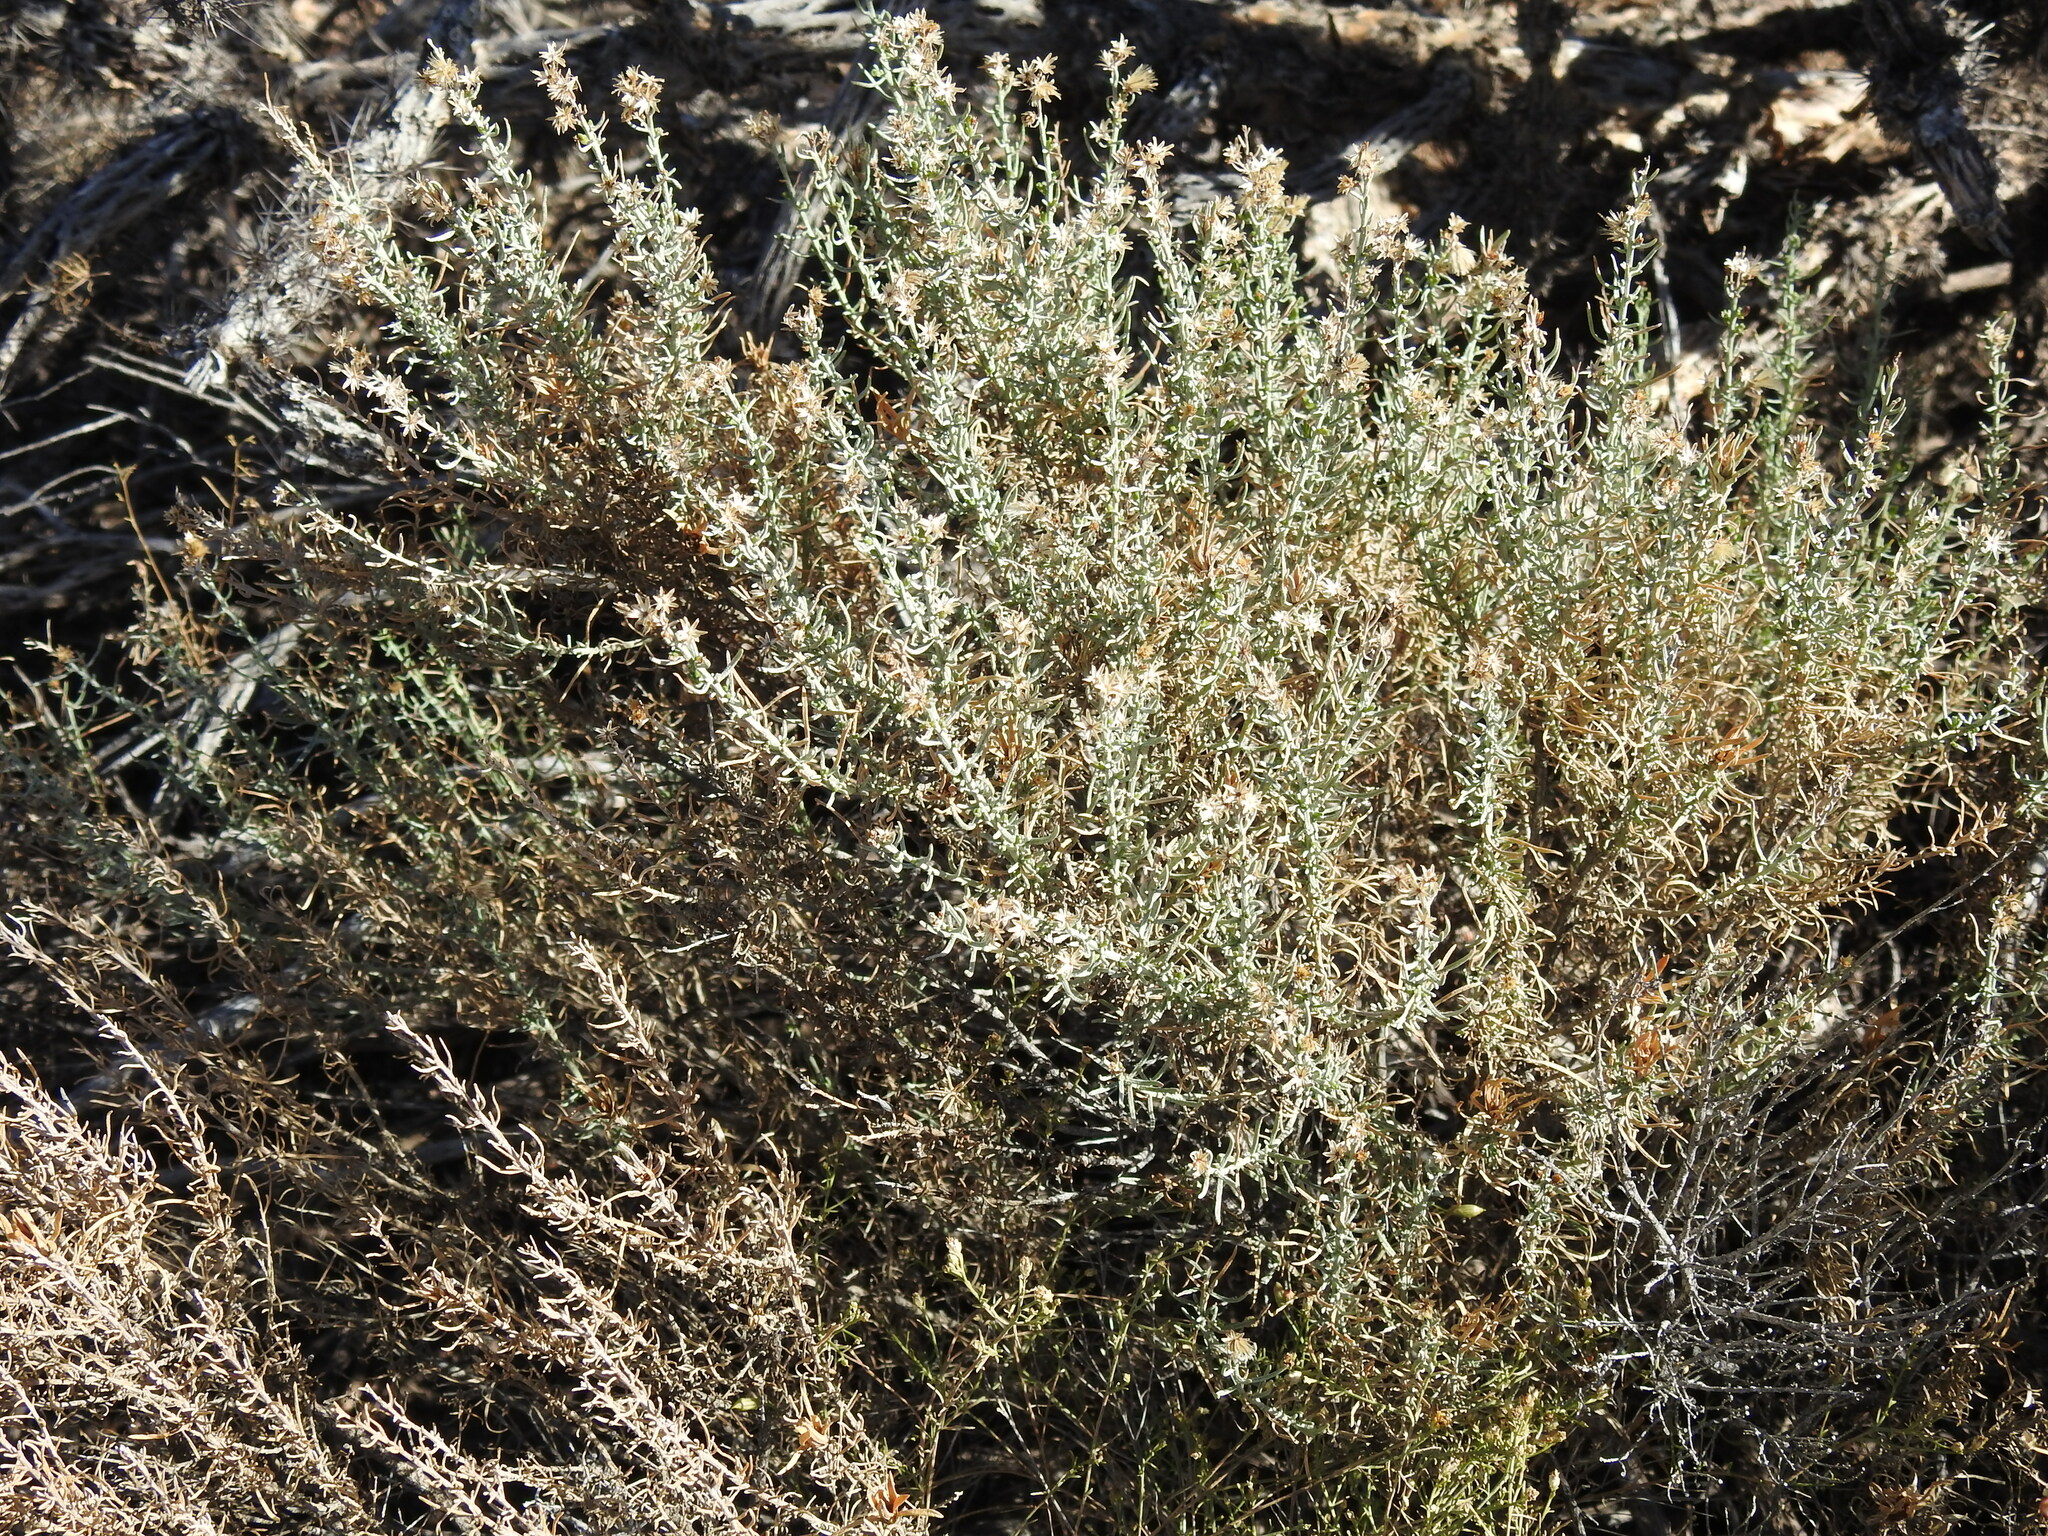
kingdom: Plantae
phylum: Tracheophyta
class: Magnoliopsida
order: Asterales
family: Asteraceae
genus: Ericameria
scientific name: Ericameria laricifolia
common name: Turpentine-bush
